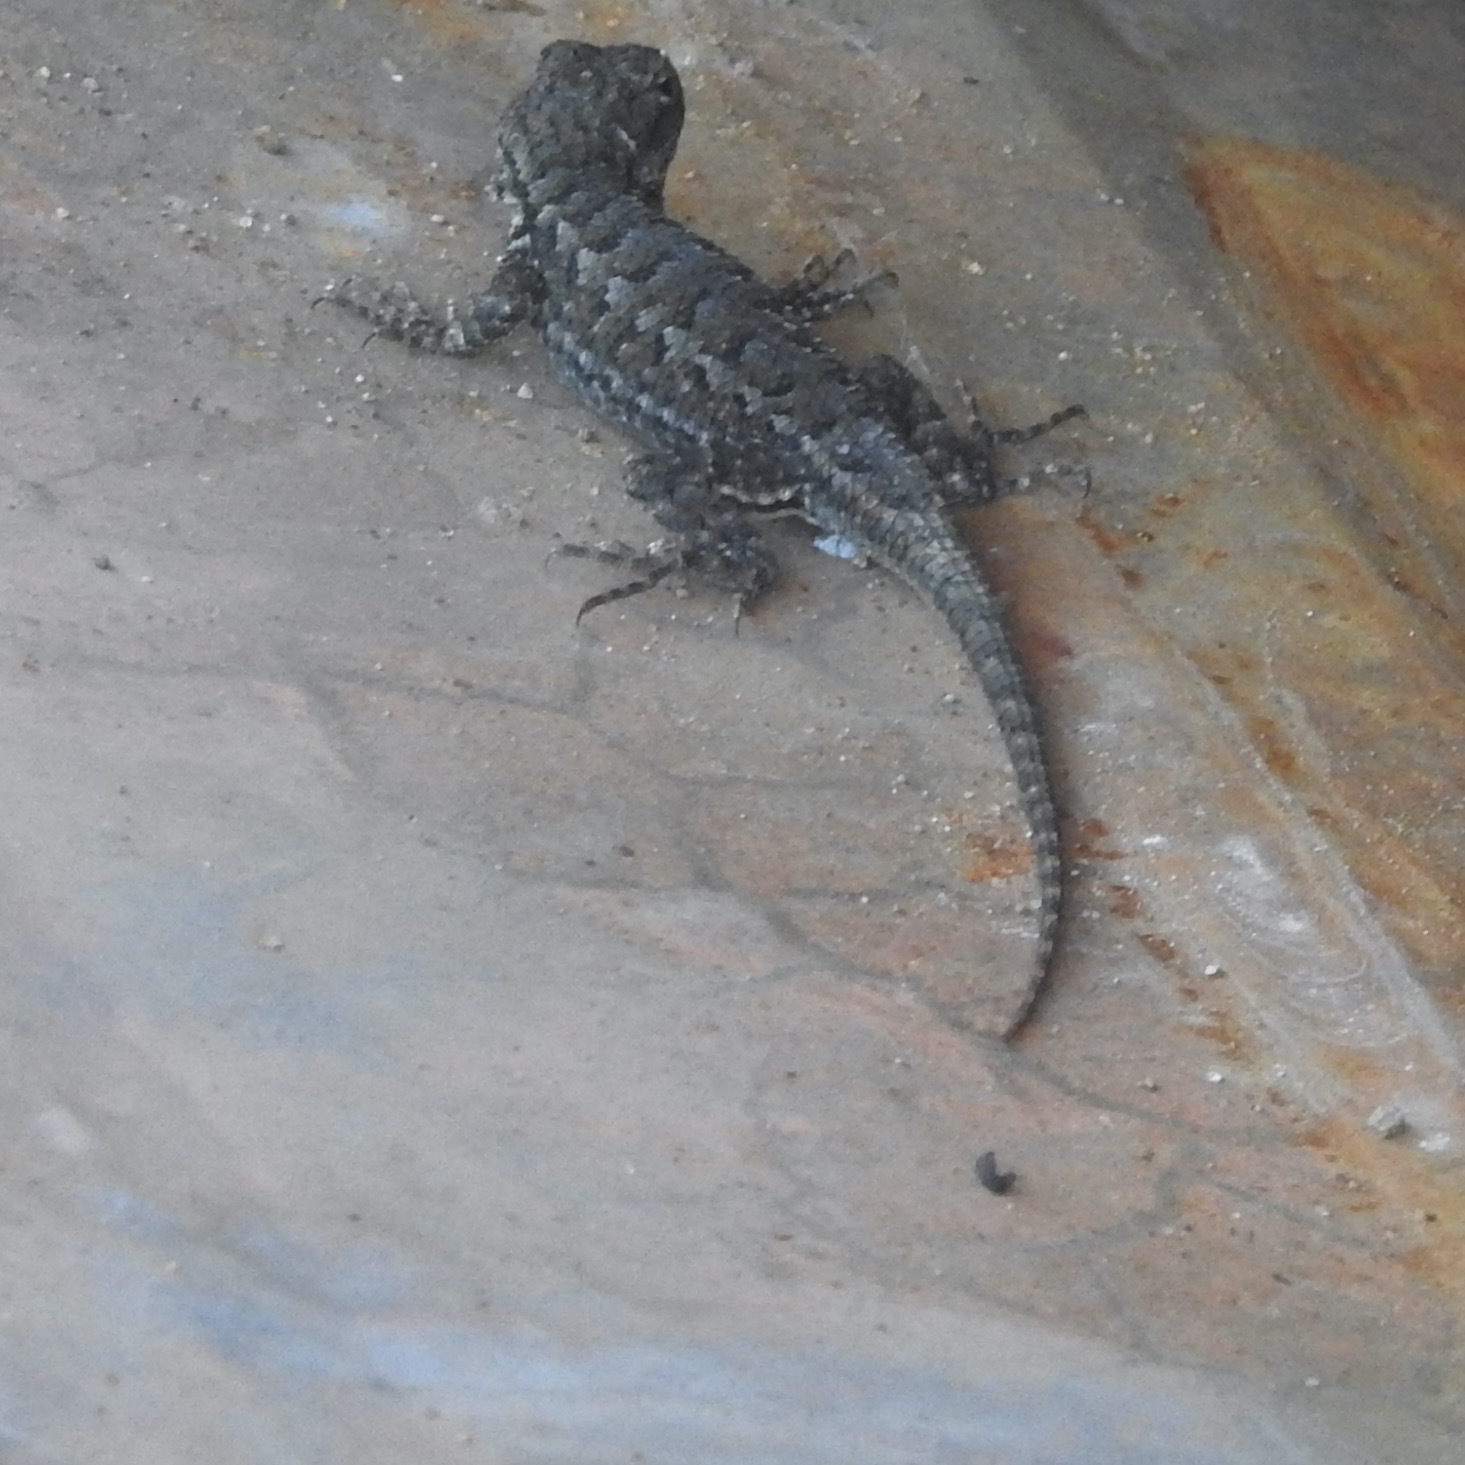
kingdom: Animalia
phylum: Chordata
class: Squamata
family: Phrynosomatidae
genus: Sceloporus
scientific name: Sceloporus occidentalis
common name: Western fence lizard
